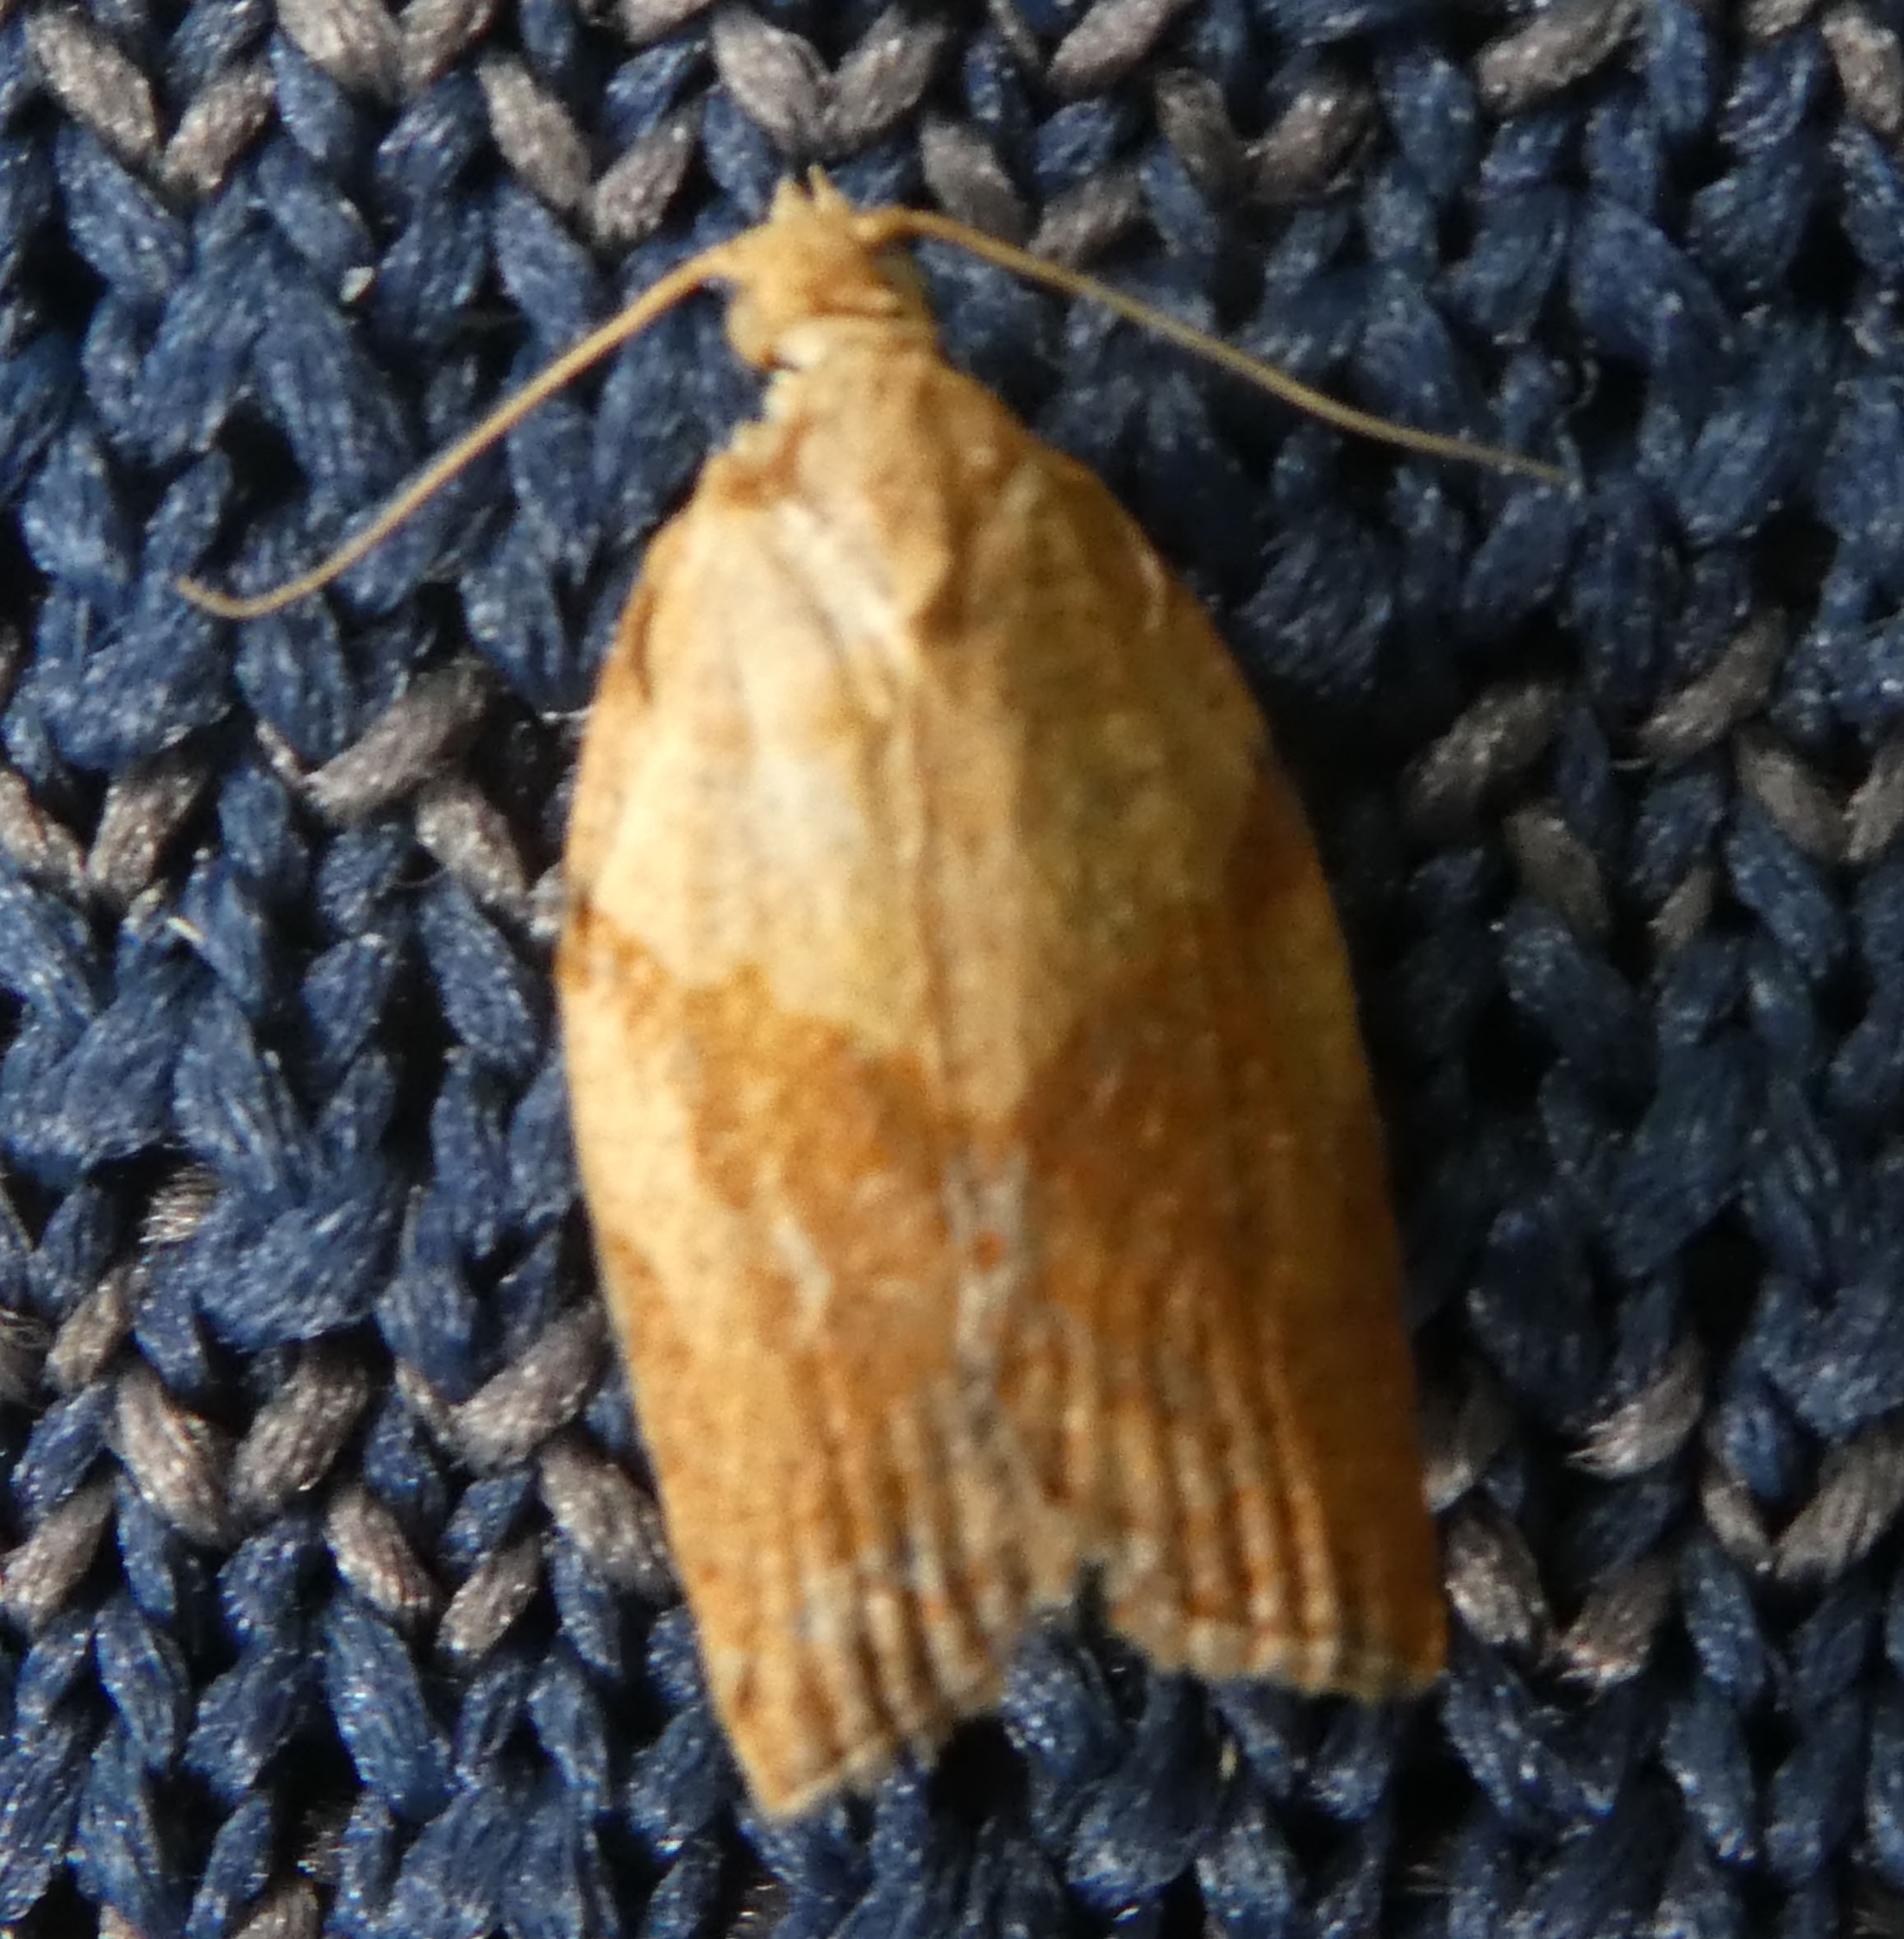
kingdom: Animalia
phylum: Arthropoda
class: Insecta
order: Lepidoptera
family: Tortricidae
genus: Epiphyas
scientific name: Epiphyas postvittana
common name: Light brown apple moth
